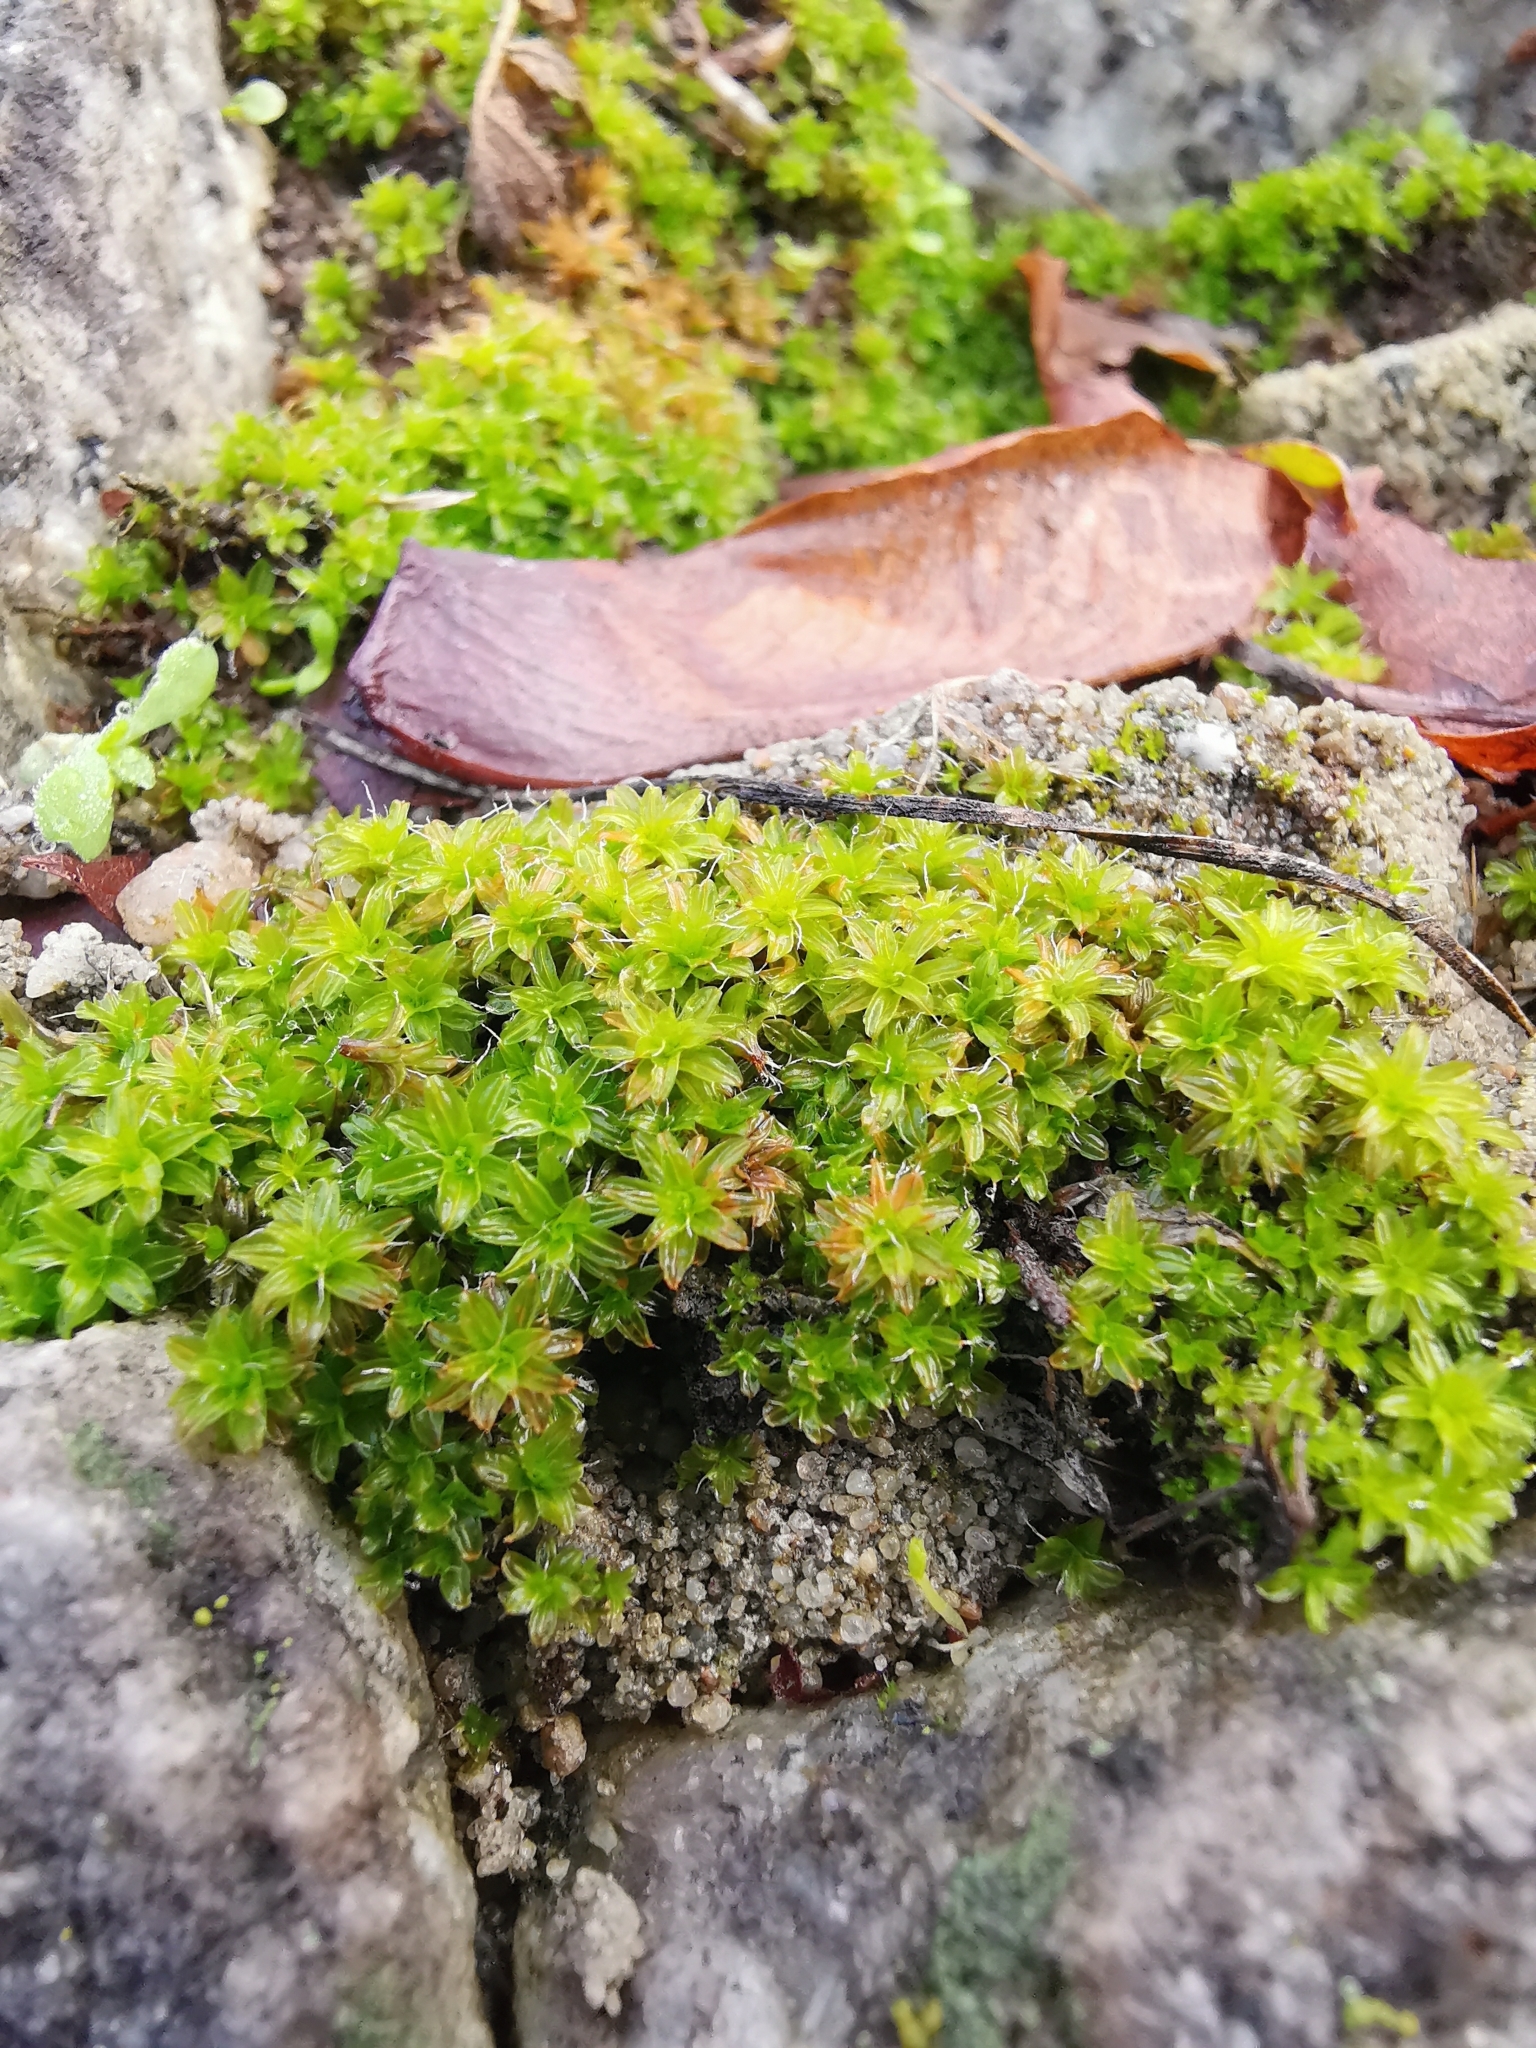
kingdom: Plantae
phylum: Bryophyta
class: Bryopsida
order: Pottiales
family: Pottiaceae
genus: Syntrichia
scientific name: Syntrichia ruralis
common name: Sidewalk screw moss
